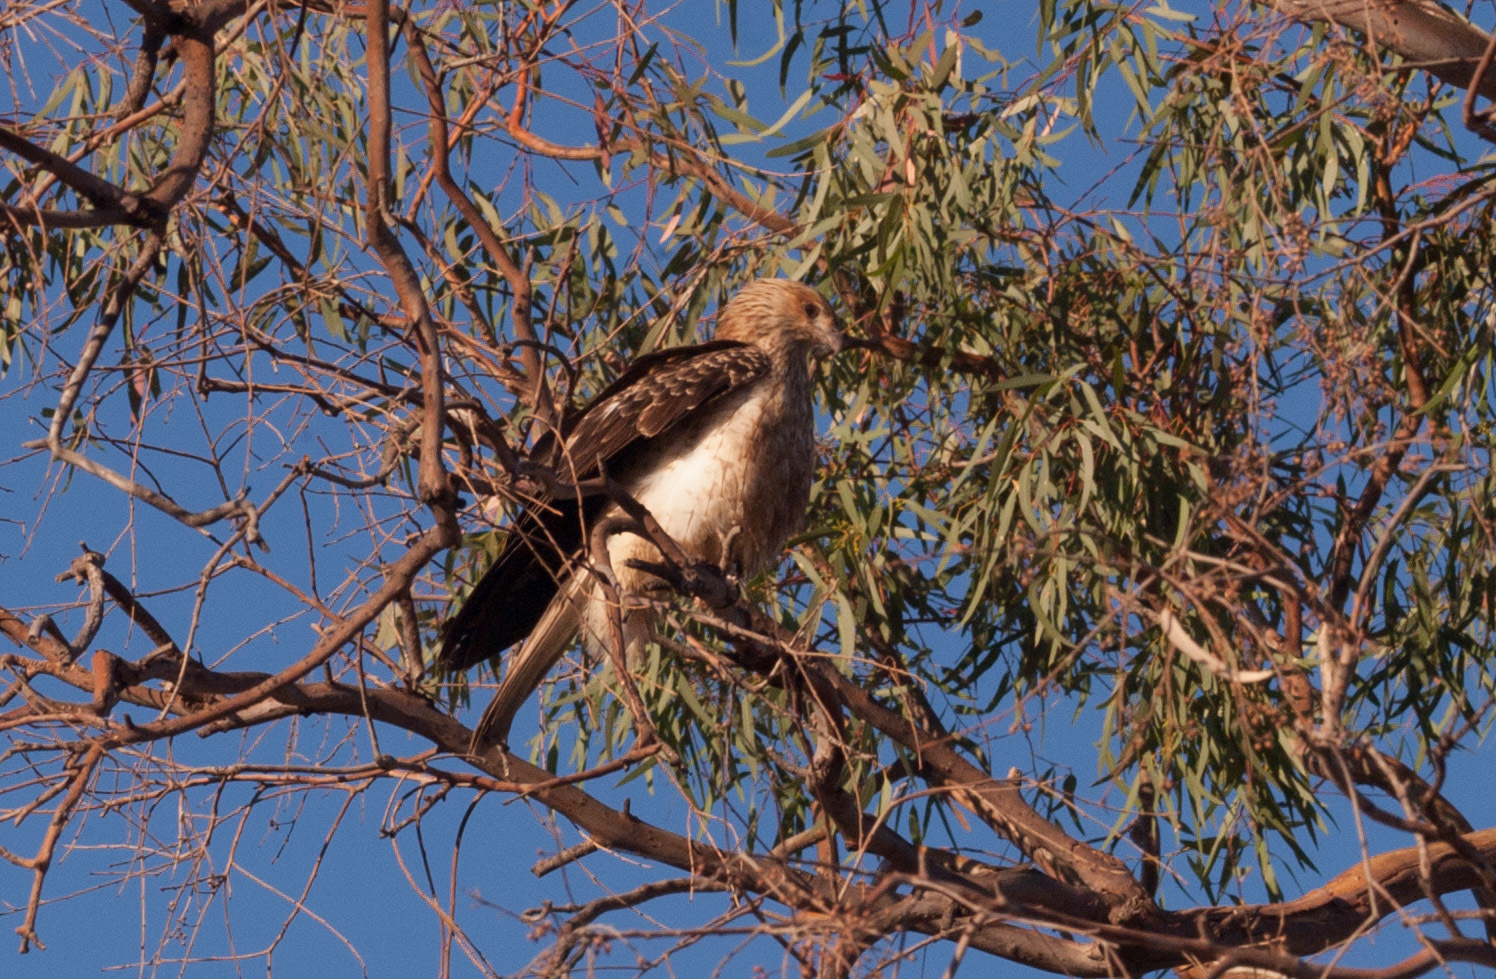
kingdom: Animalia
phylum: Chordata
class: Aves
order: Accipitriformes
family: Accipitridae
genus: Haliastur
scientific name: Haliastur sphenurus
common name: Whistling kite
